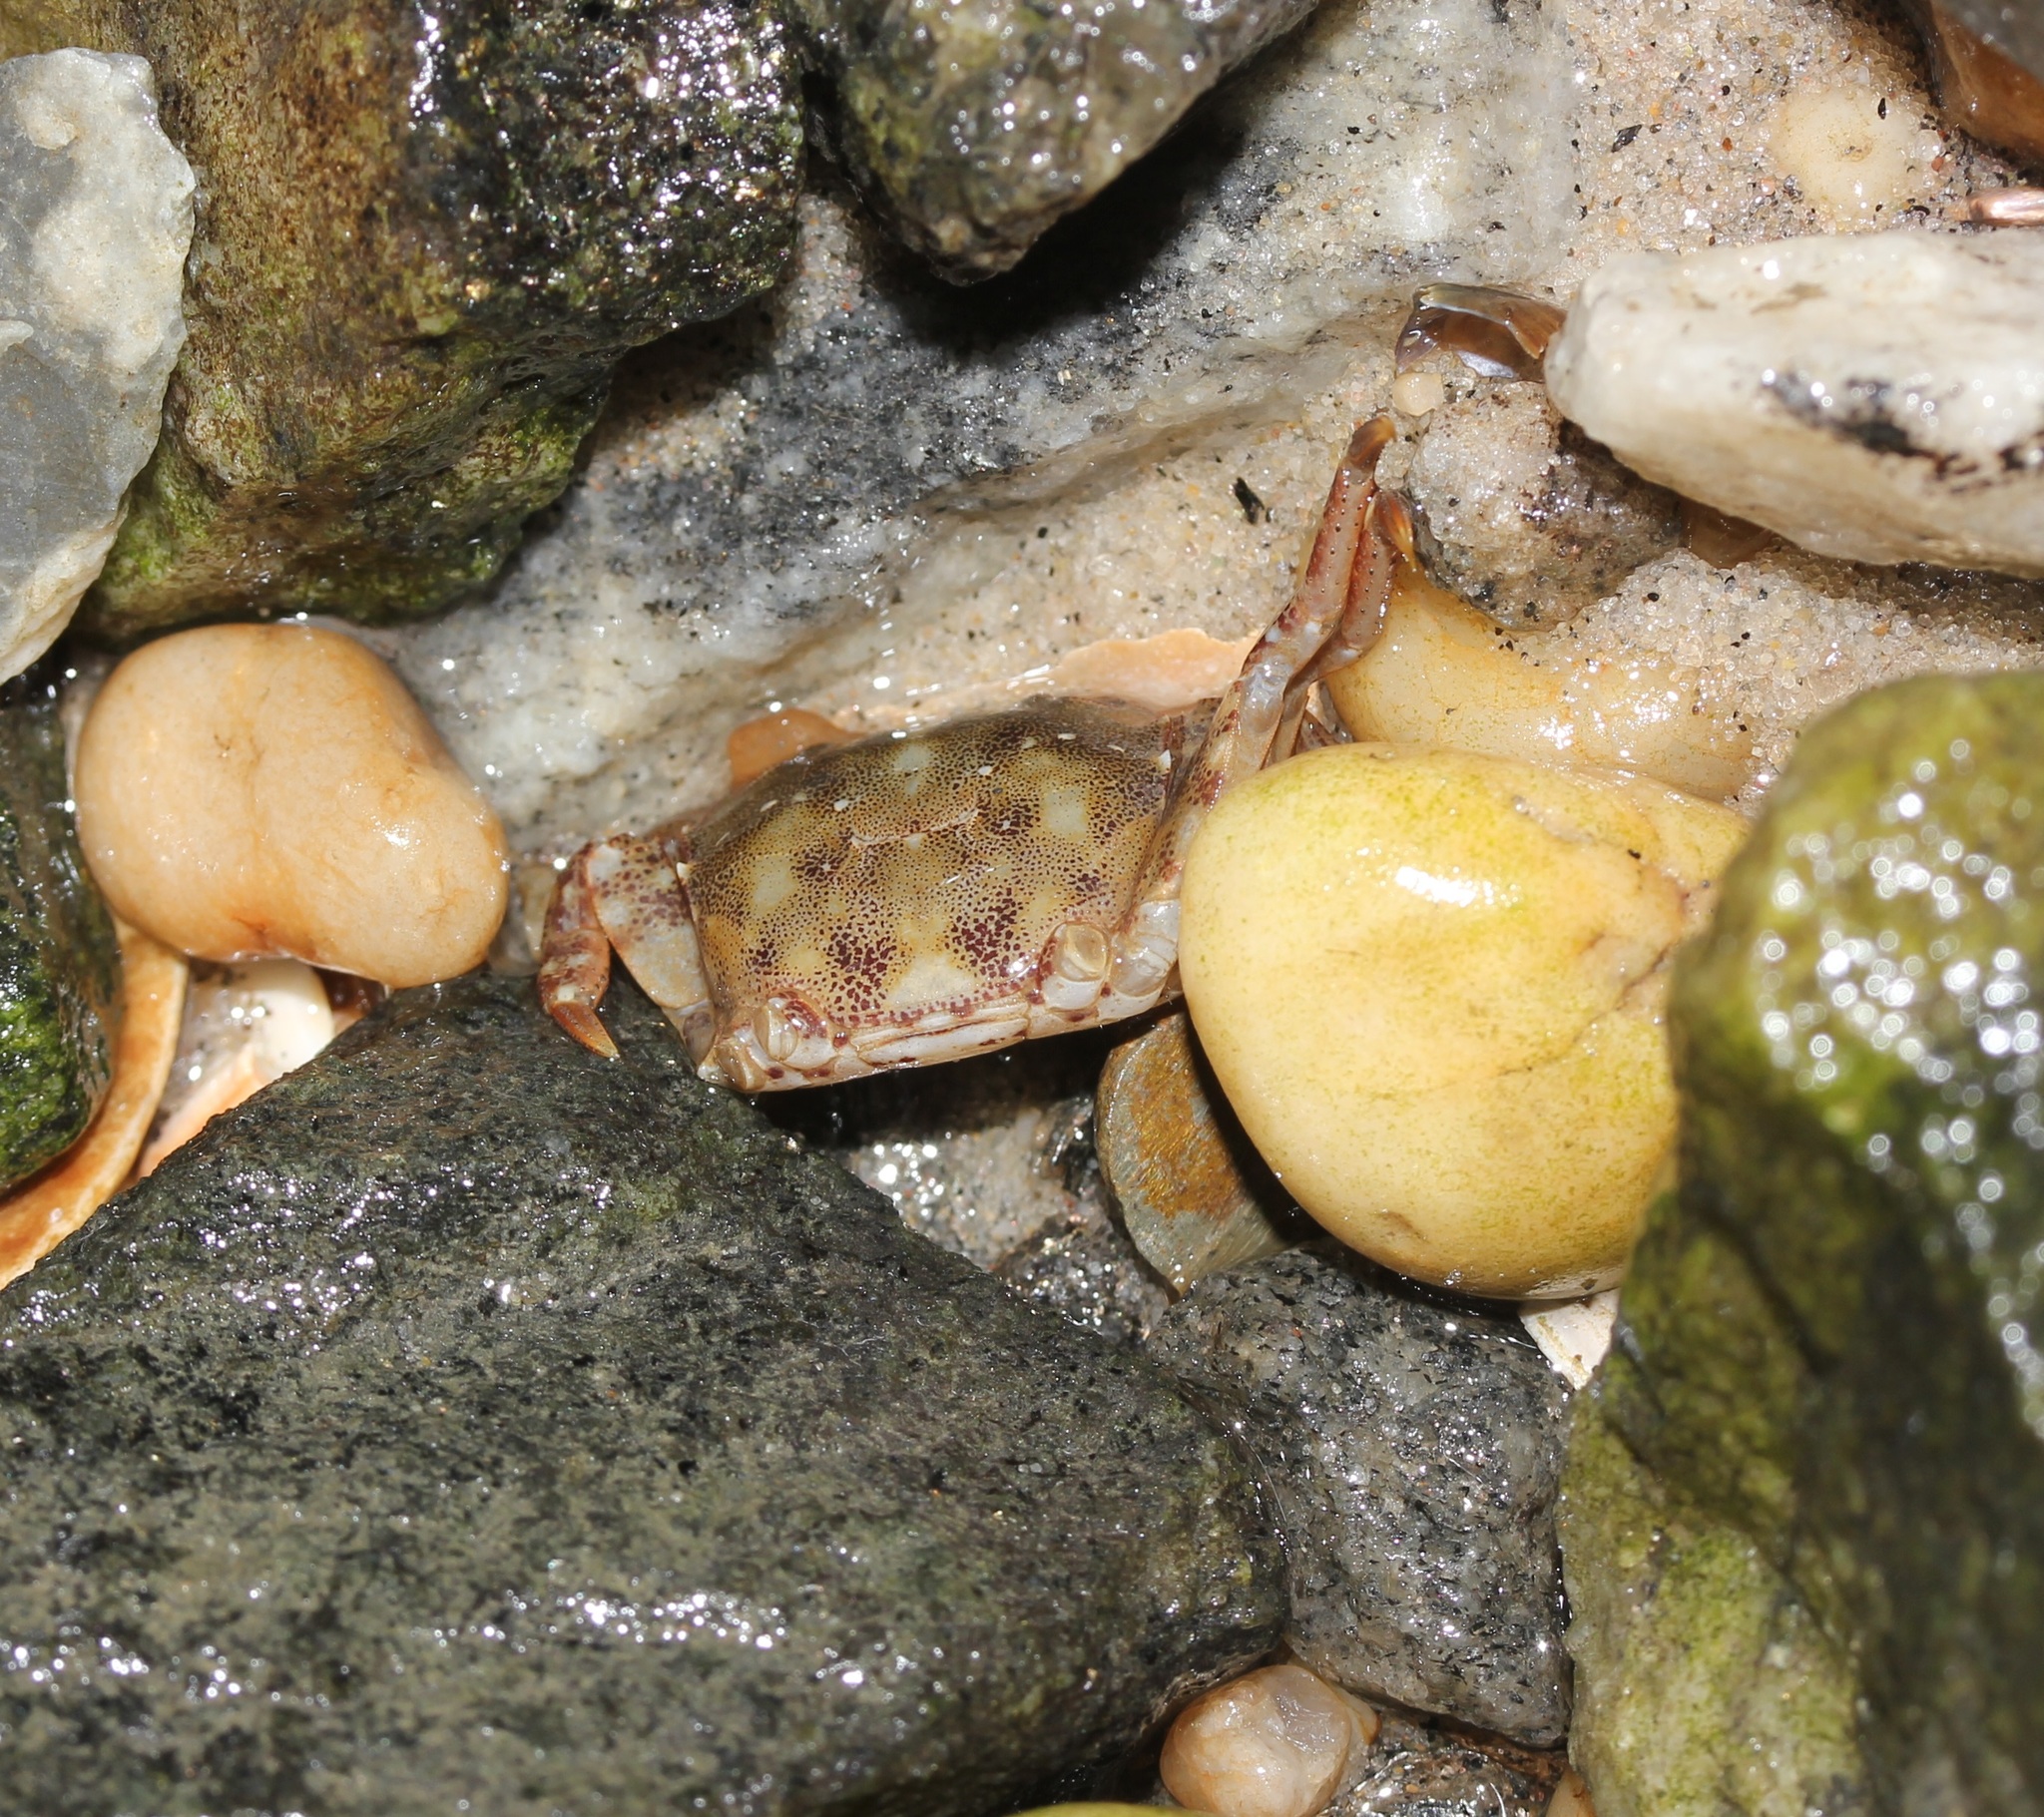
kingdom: Animalia
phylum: Arthropoda
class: Malacostraca
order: Decapoda
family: Varunidae
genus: Hemigrapsus
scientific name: Hemigrapsus sanguineus
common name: Asian shore crab
